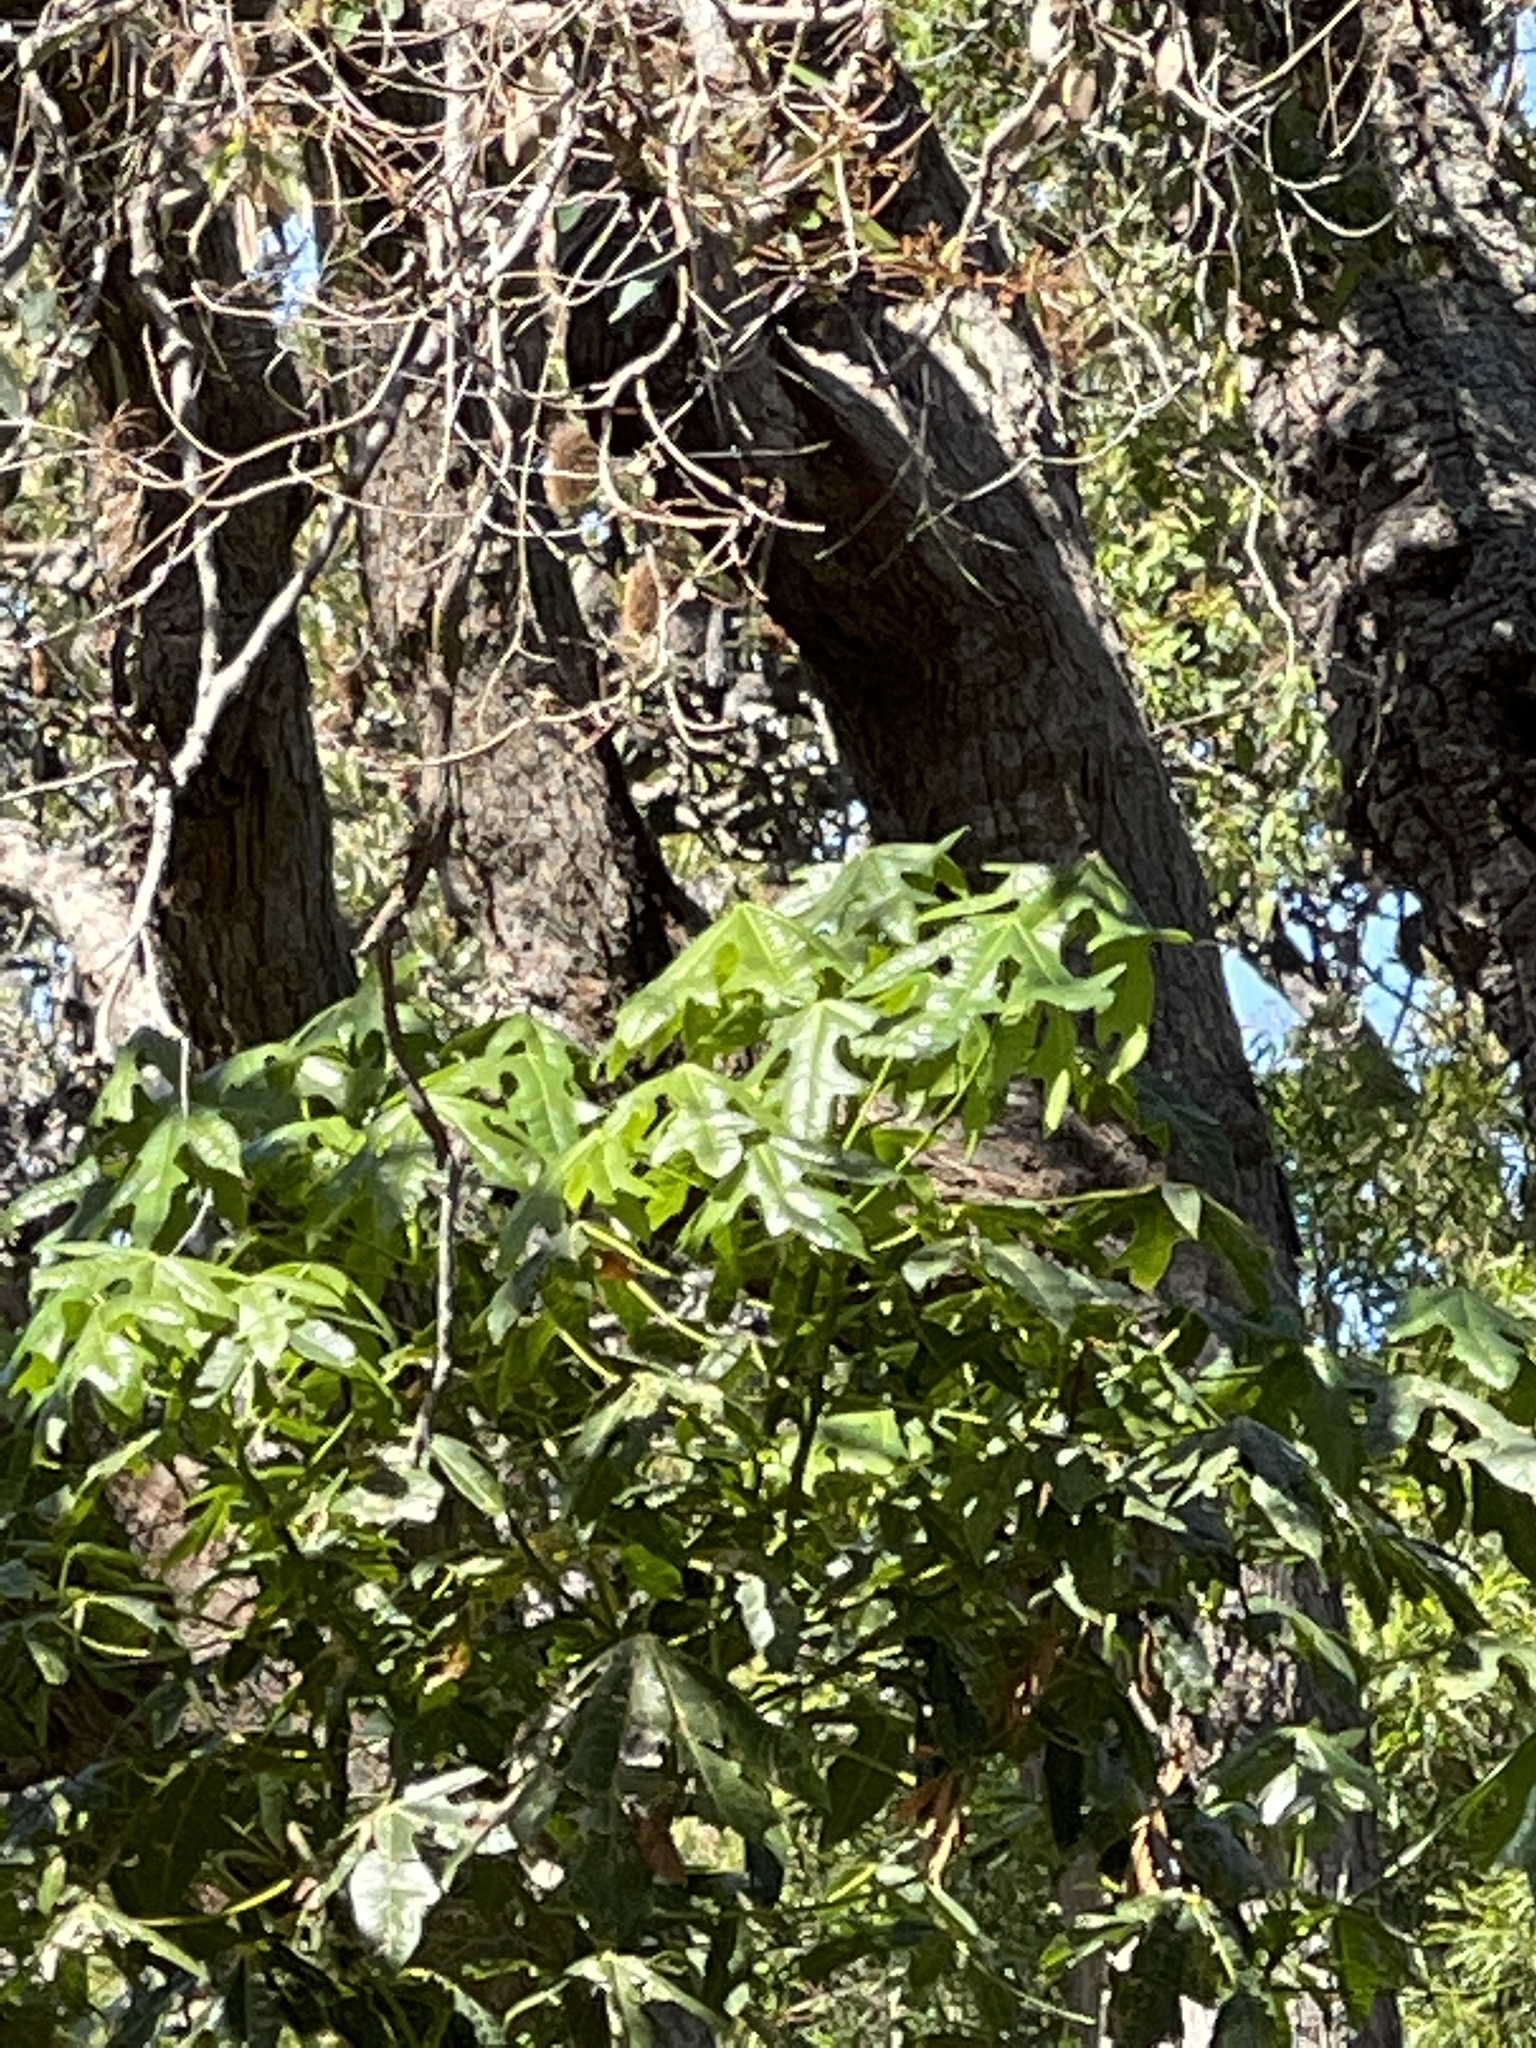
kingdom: Plantae
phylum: Tracheophyta
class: Magnoliopsida
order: Malvales
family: Malvaceae
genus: Brachychiton
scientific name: Brachychiton acerifolius
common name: Illawarra flame tree
